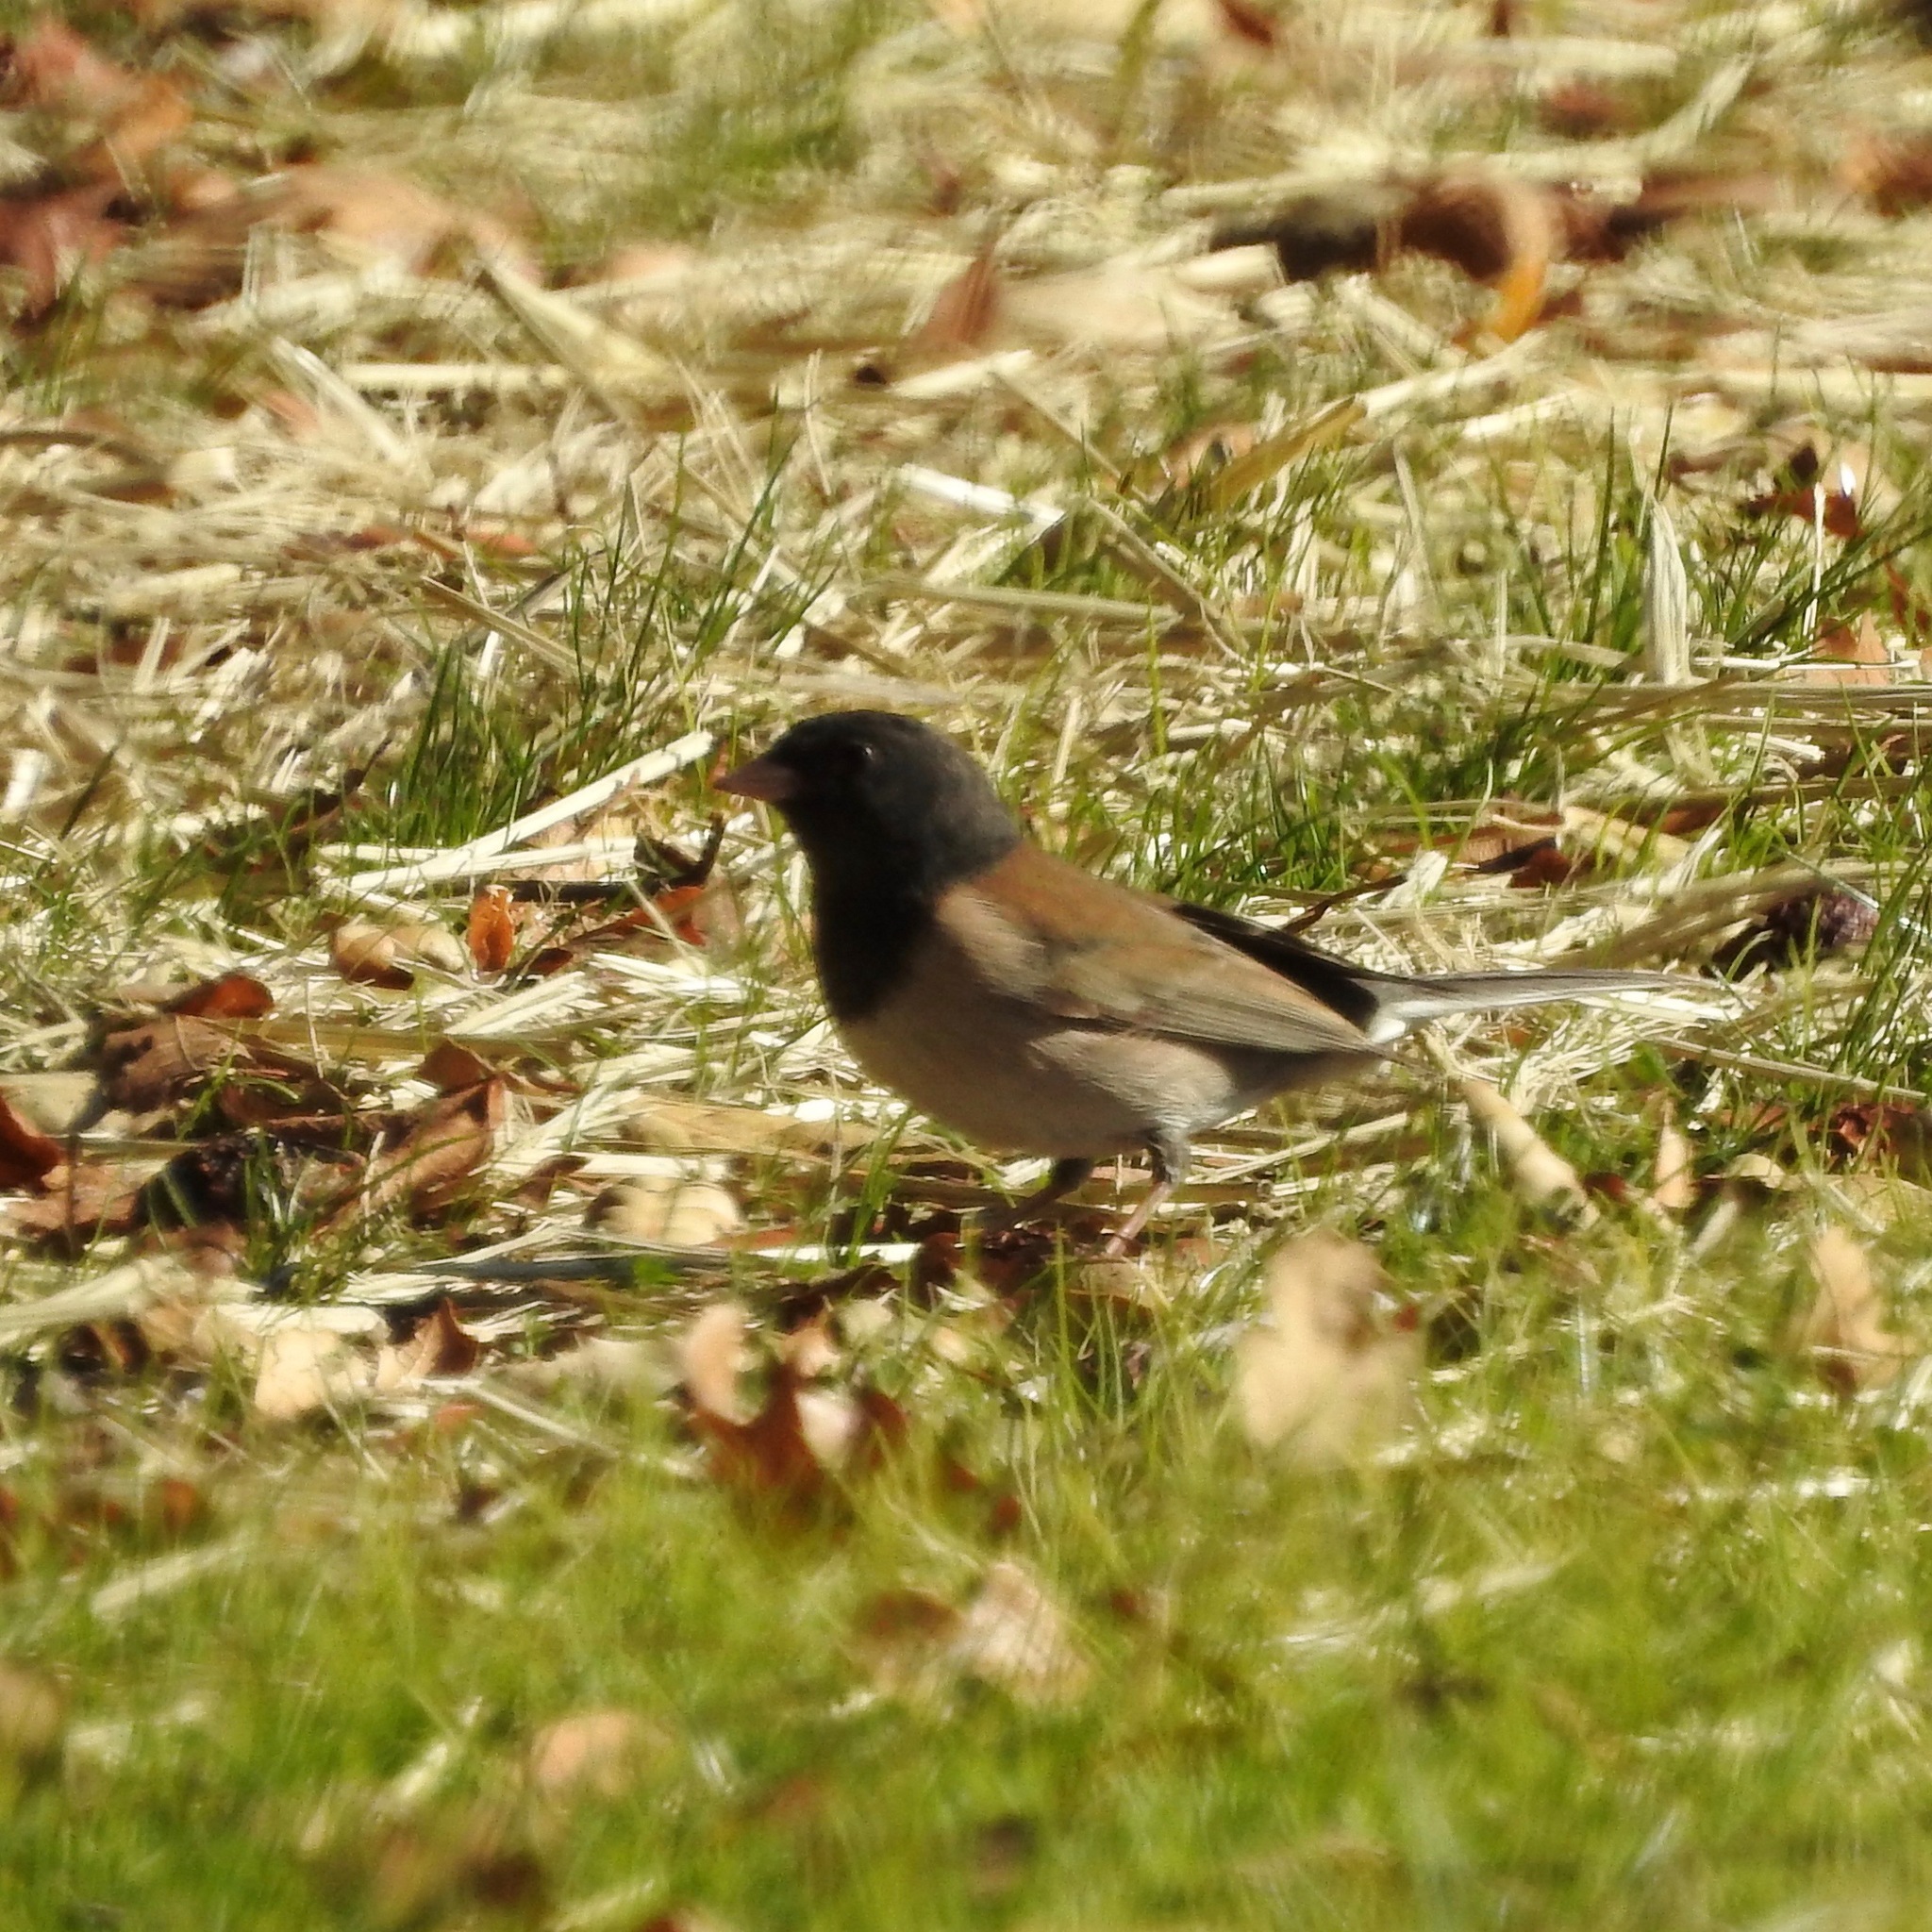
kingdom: Animalia
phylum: Chordata
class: Aves
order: Passeriformes
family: Passerellidae
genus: Junco
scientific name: Junco hyemalis
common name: Dark-eyed junco
